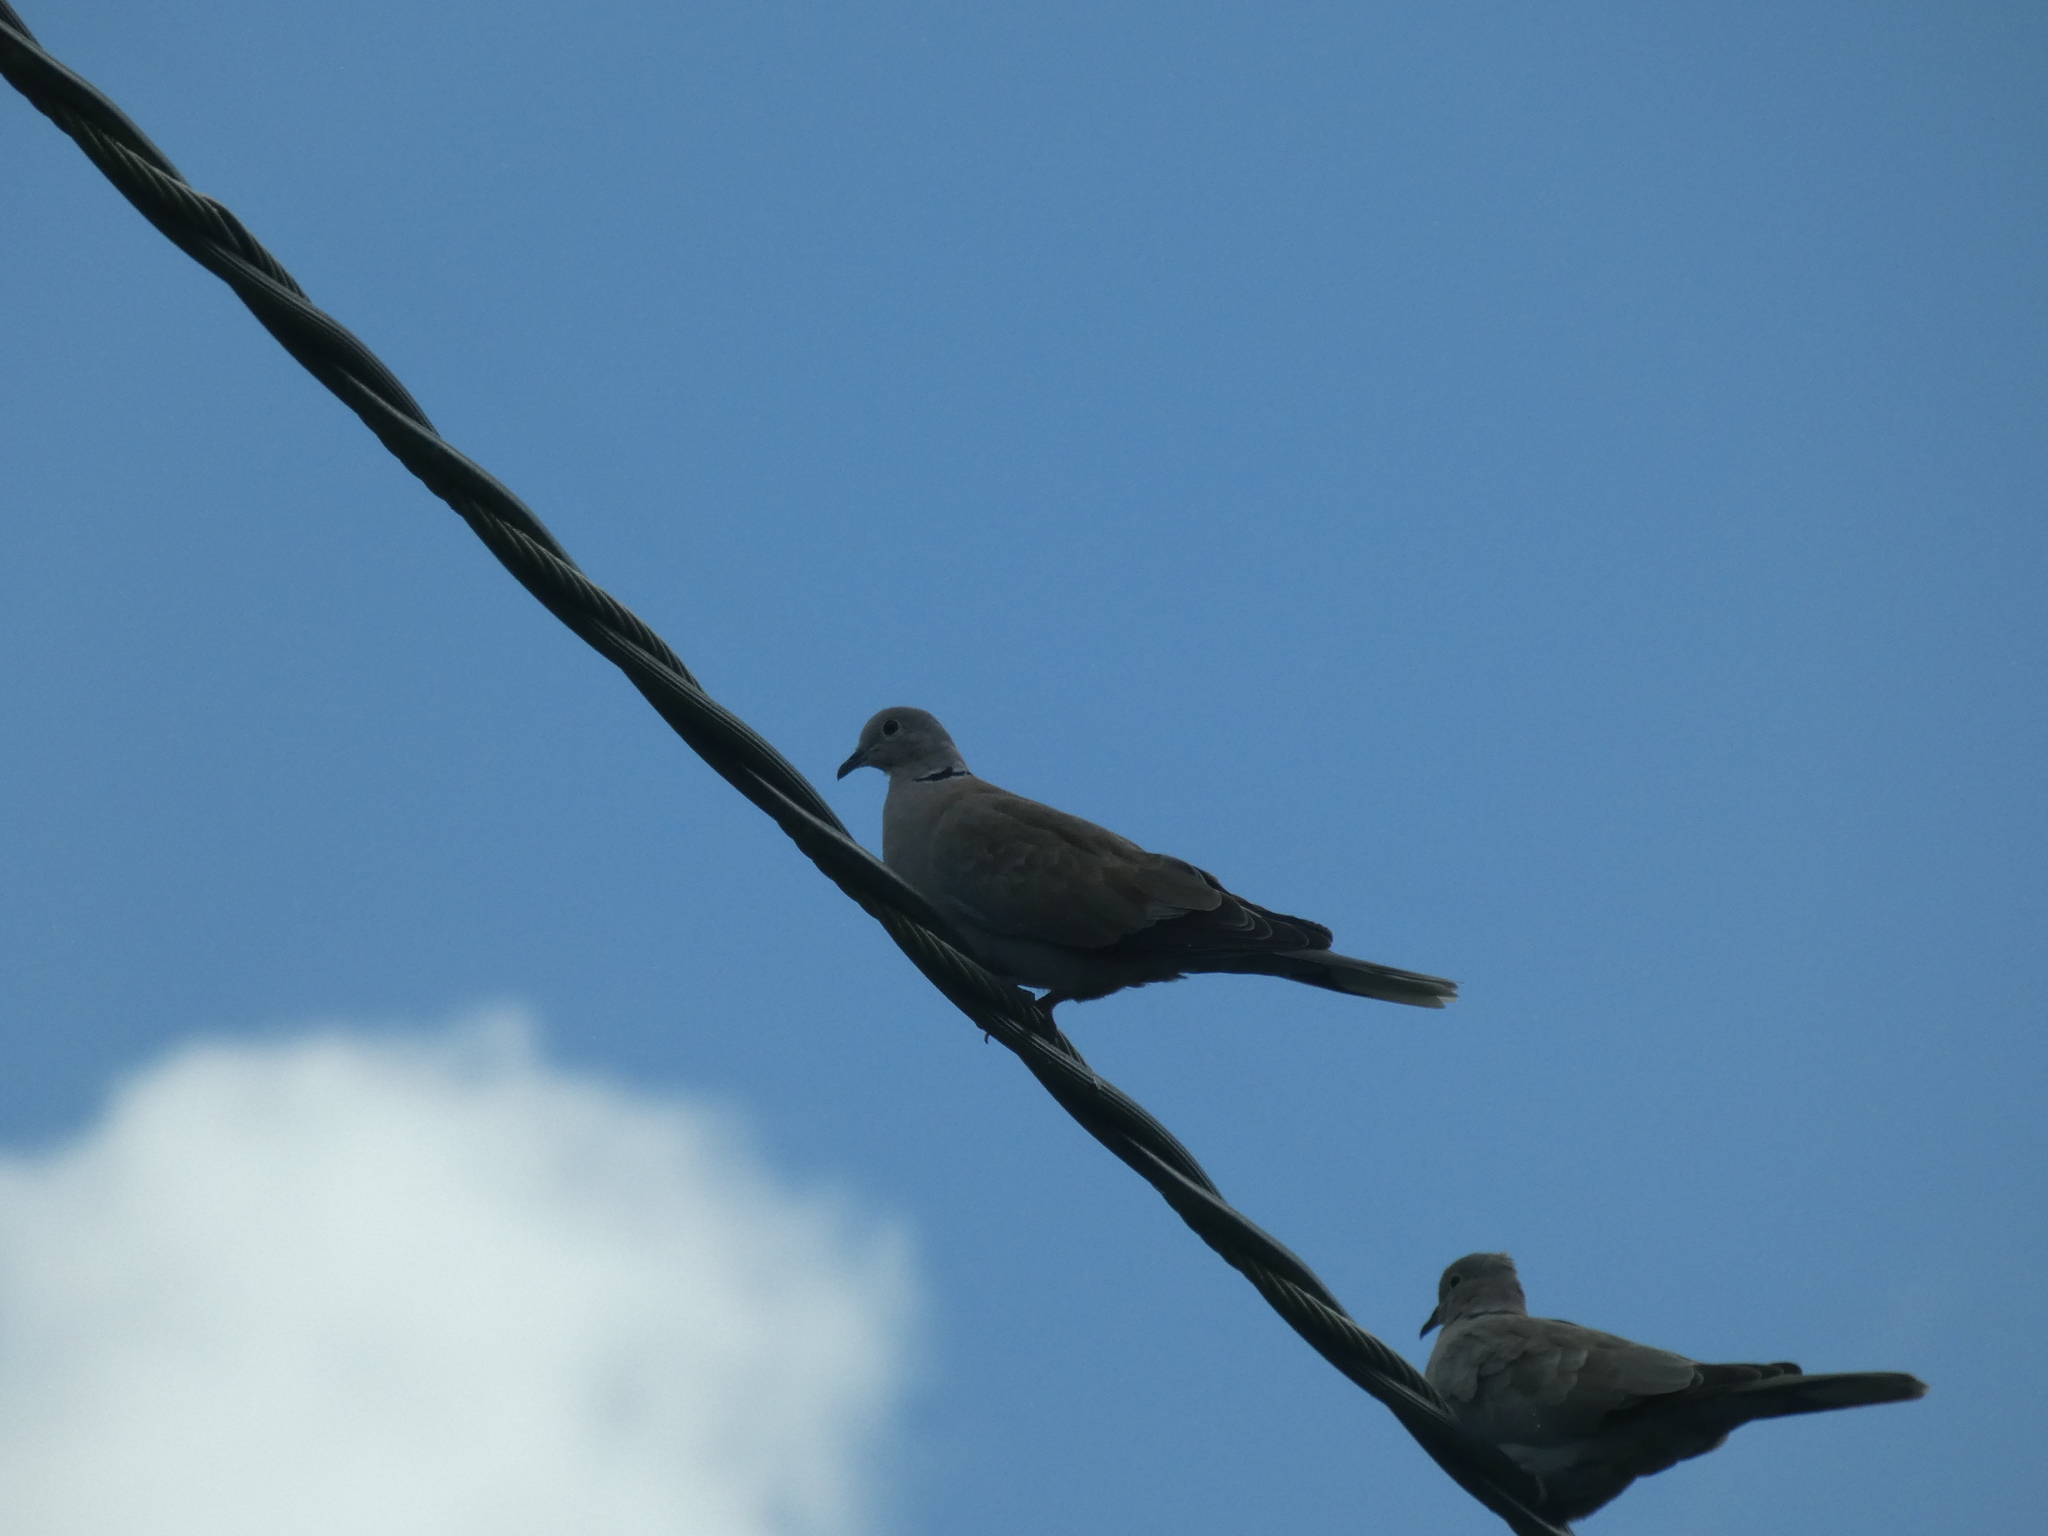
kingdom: Animalia
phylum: Chordata
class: Aves
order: Columbiformes
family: Columbidae
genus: Streptopelia
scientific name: Streptopelia decaocto
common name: Eurasian collared dove
